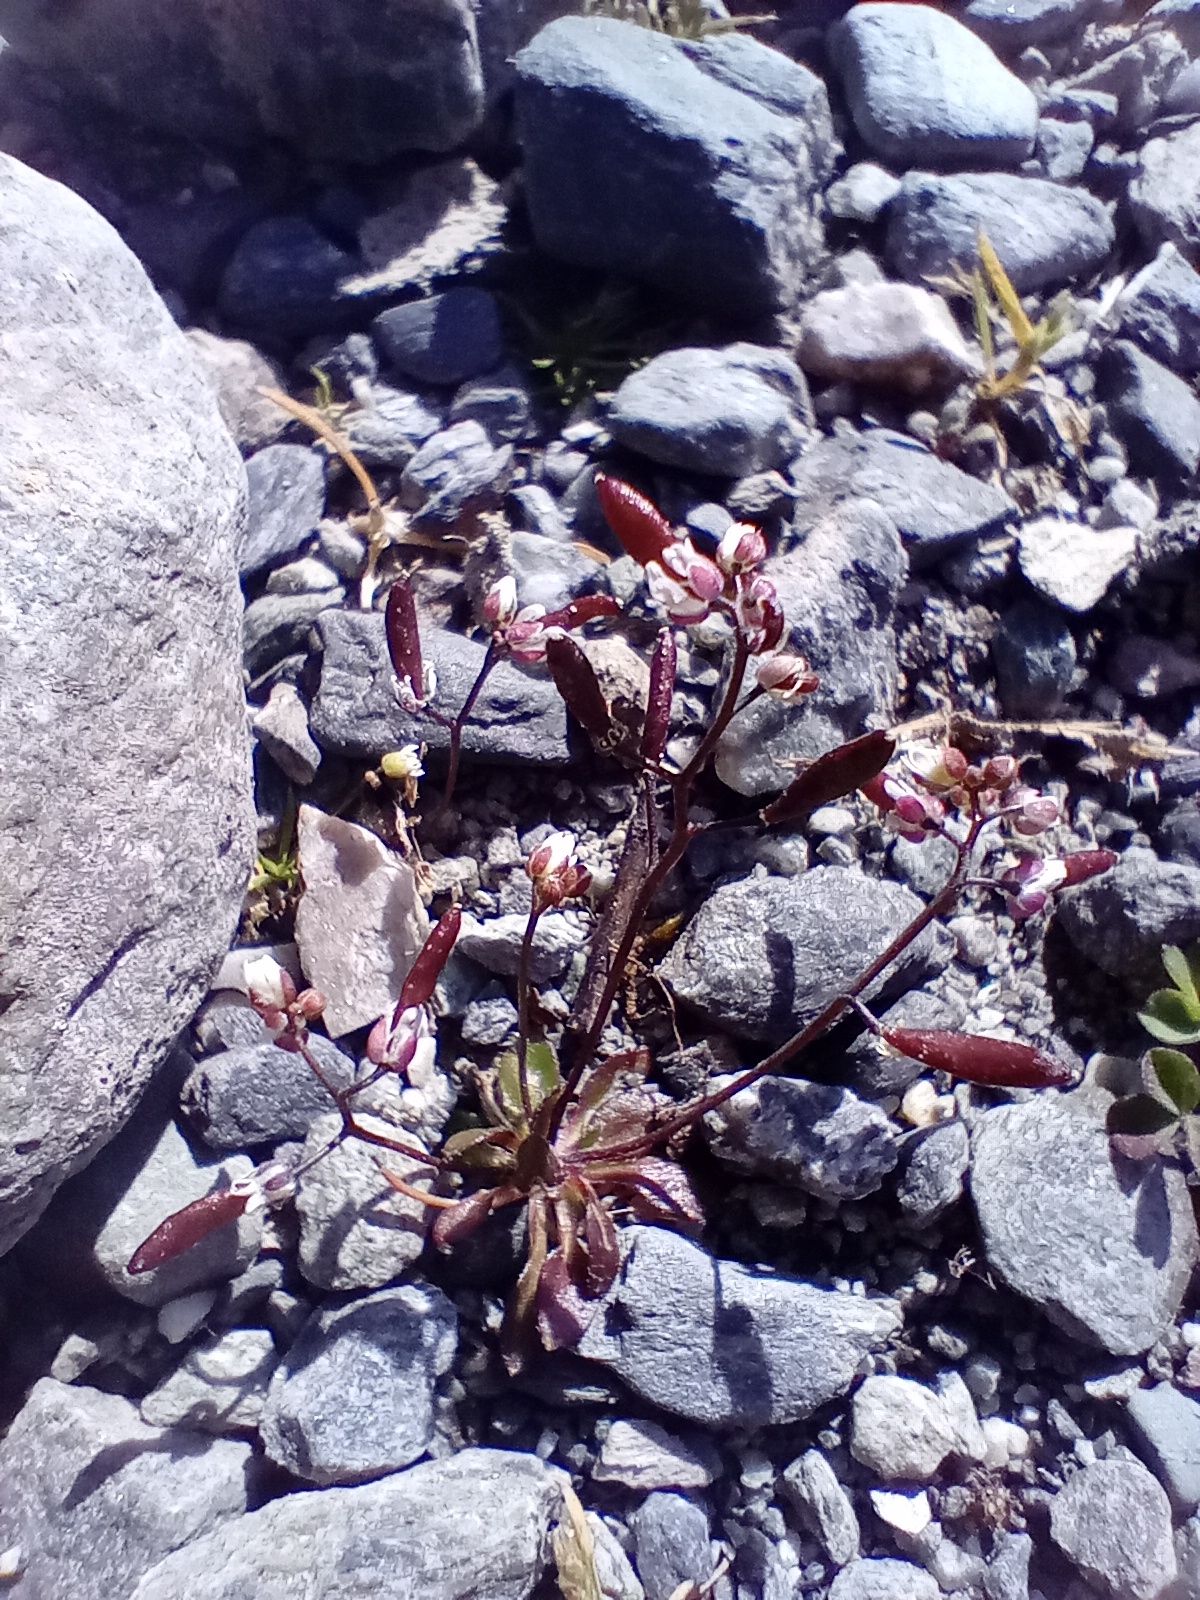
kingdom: Plantae
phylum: Tracheophyta
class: Magnoliopsida
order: Brassicales
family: Brassicaceae
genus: Draba
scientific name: Draba verna
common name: Spring draba
